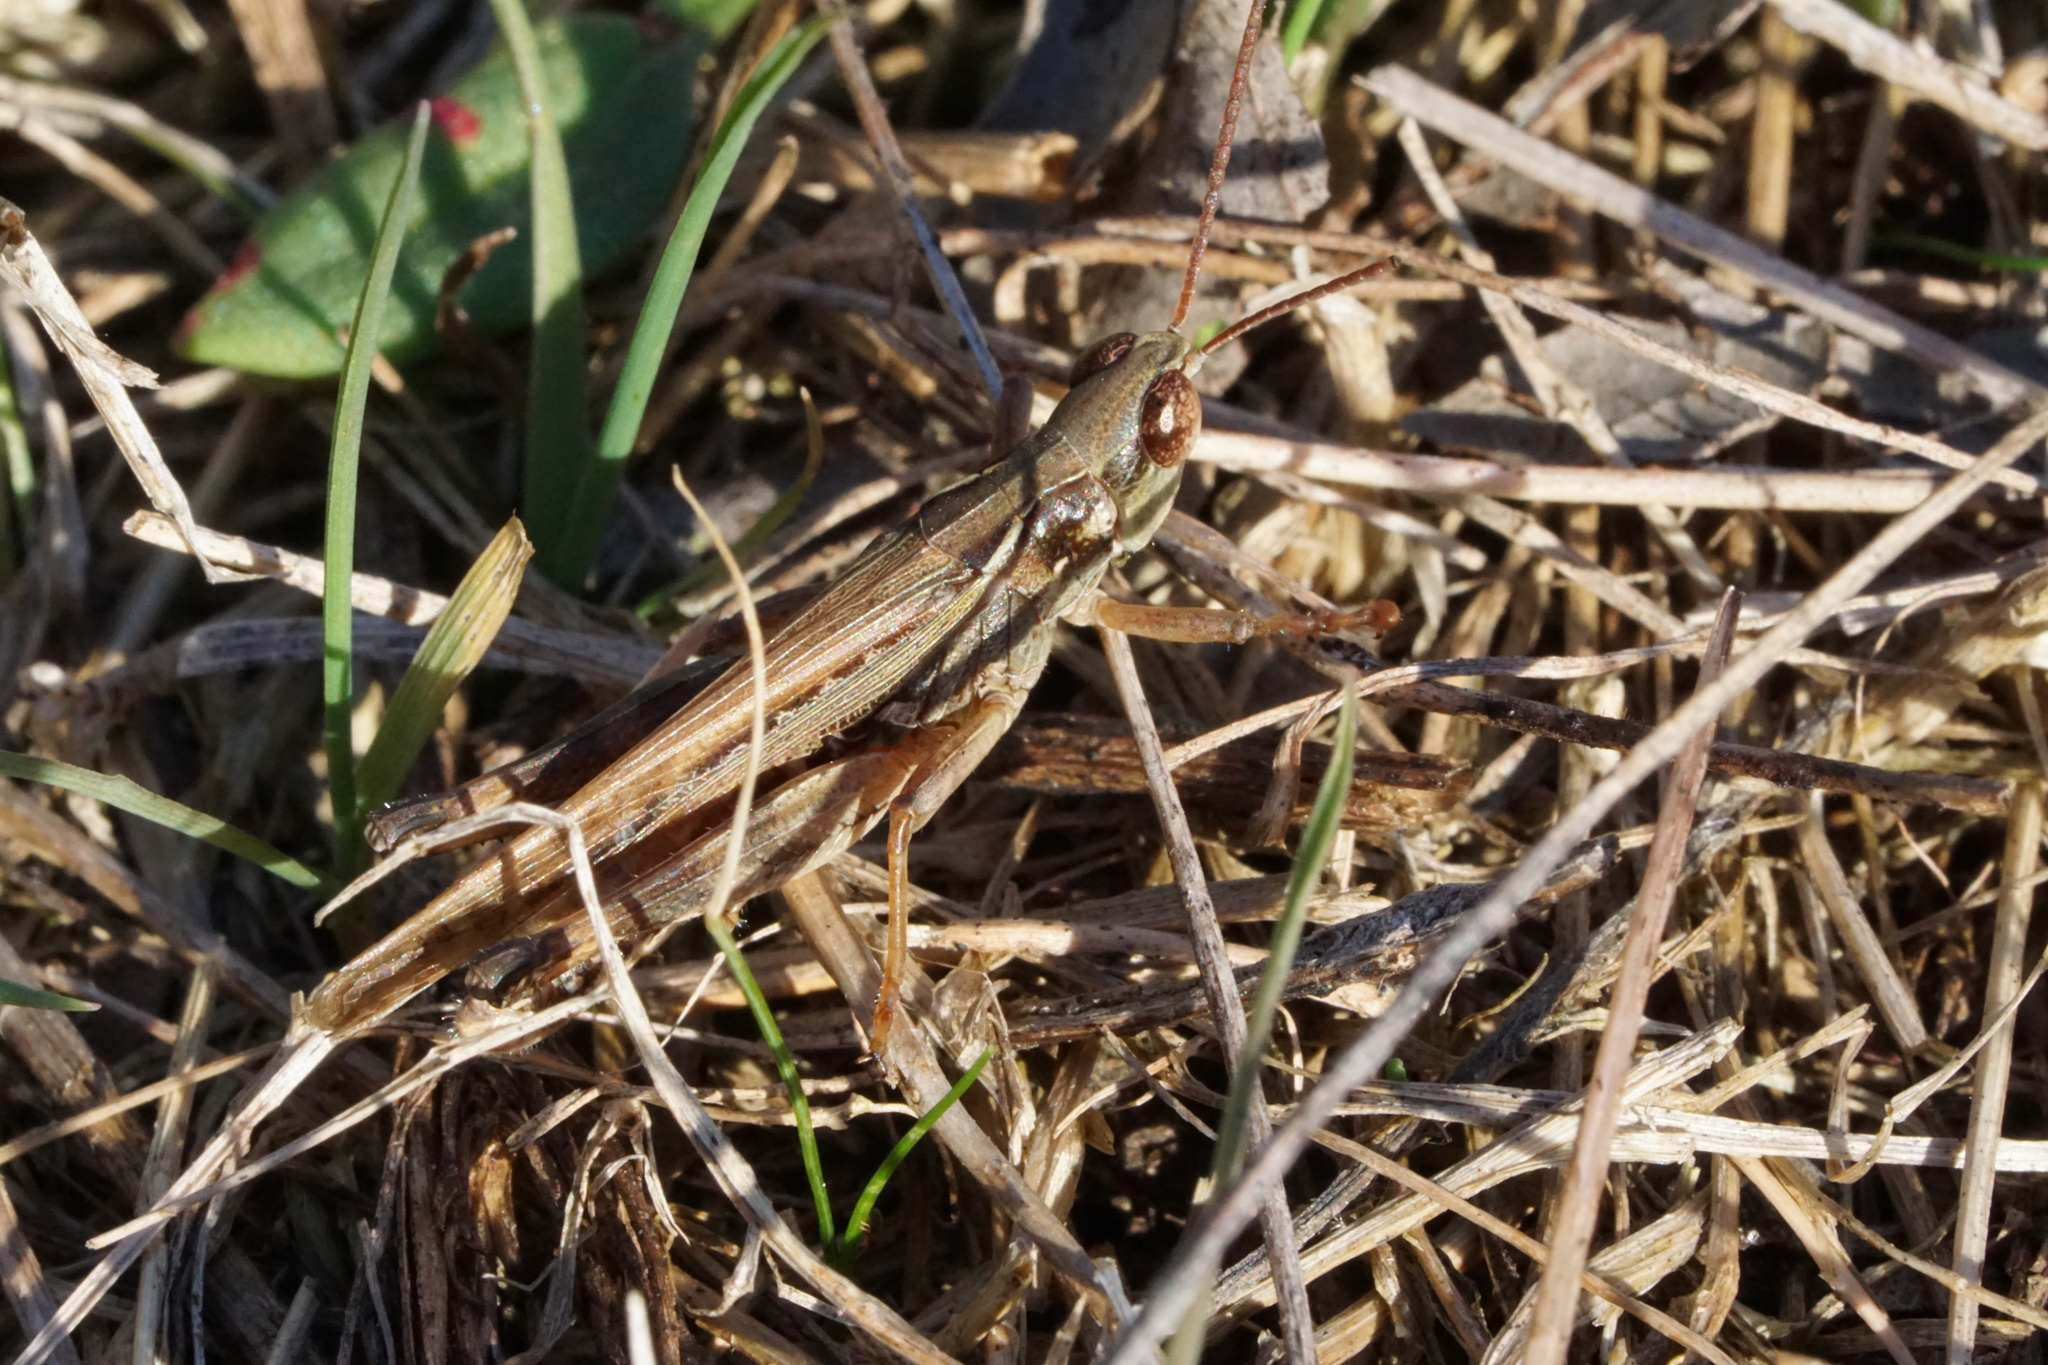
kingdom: Animalia
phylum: Arthropoda
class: Insecta
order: Orthoptera
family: Acrididae
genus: Orphulella
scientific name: Orphulella pelidna
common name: Spotted-wing grasshopper
